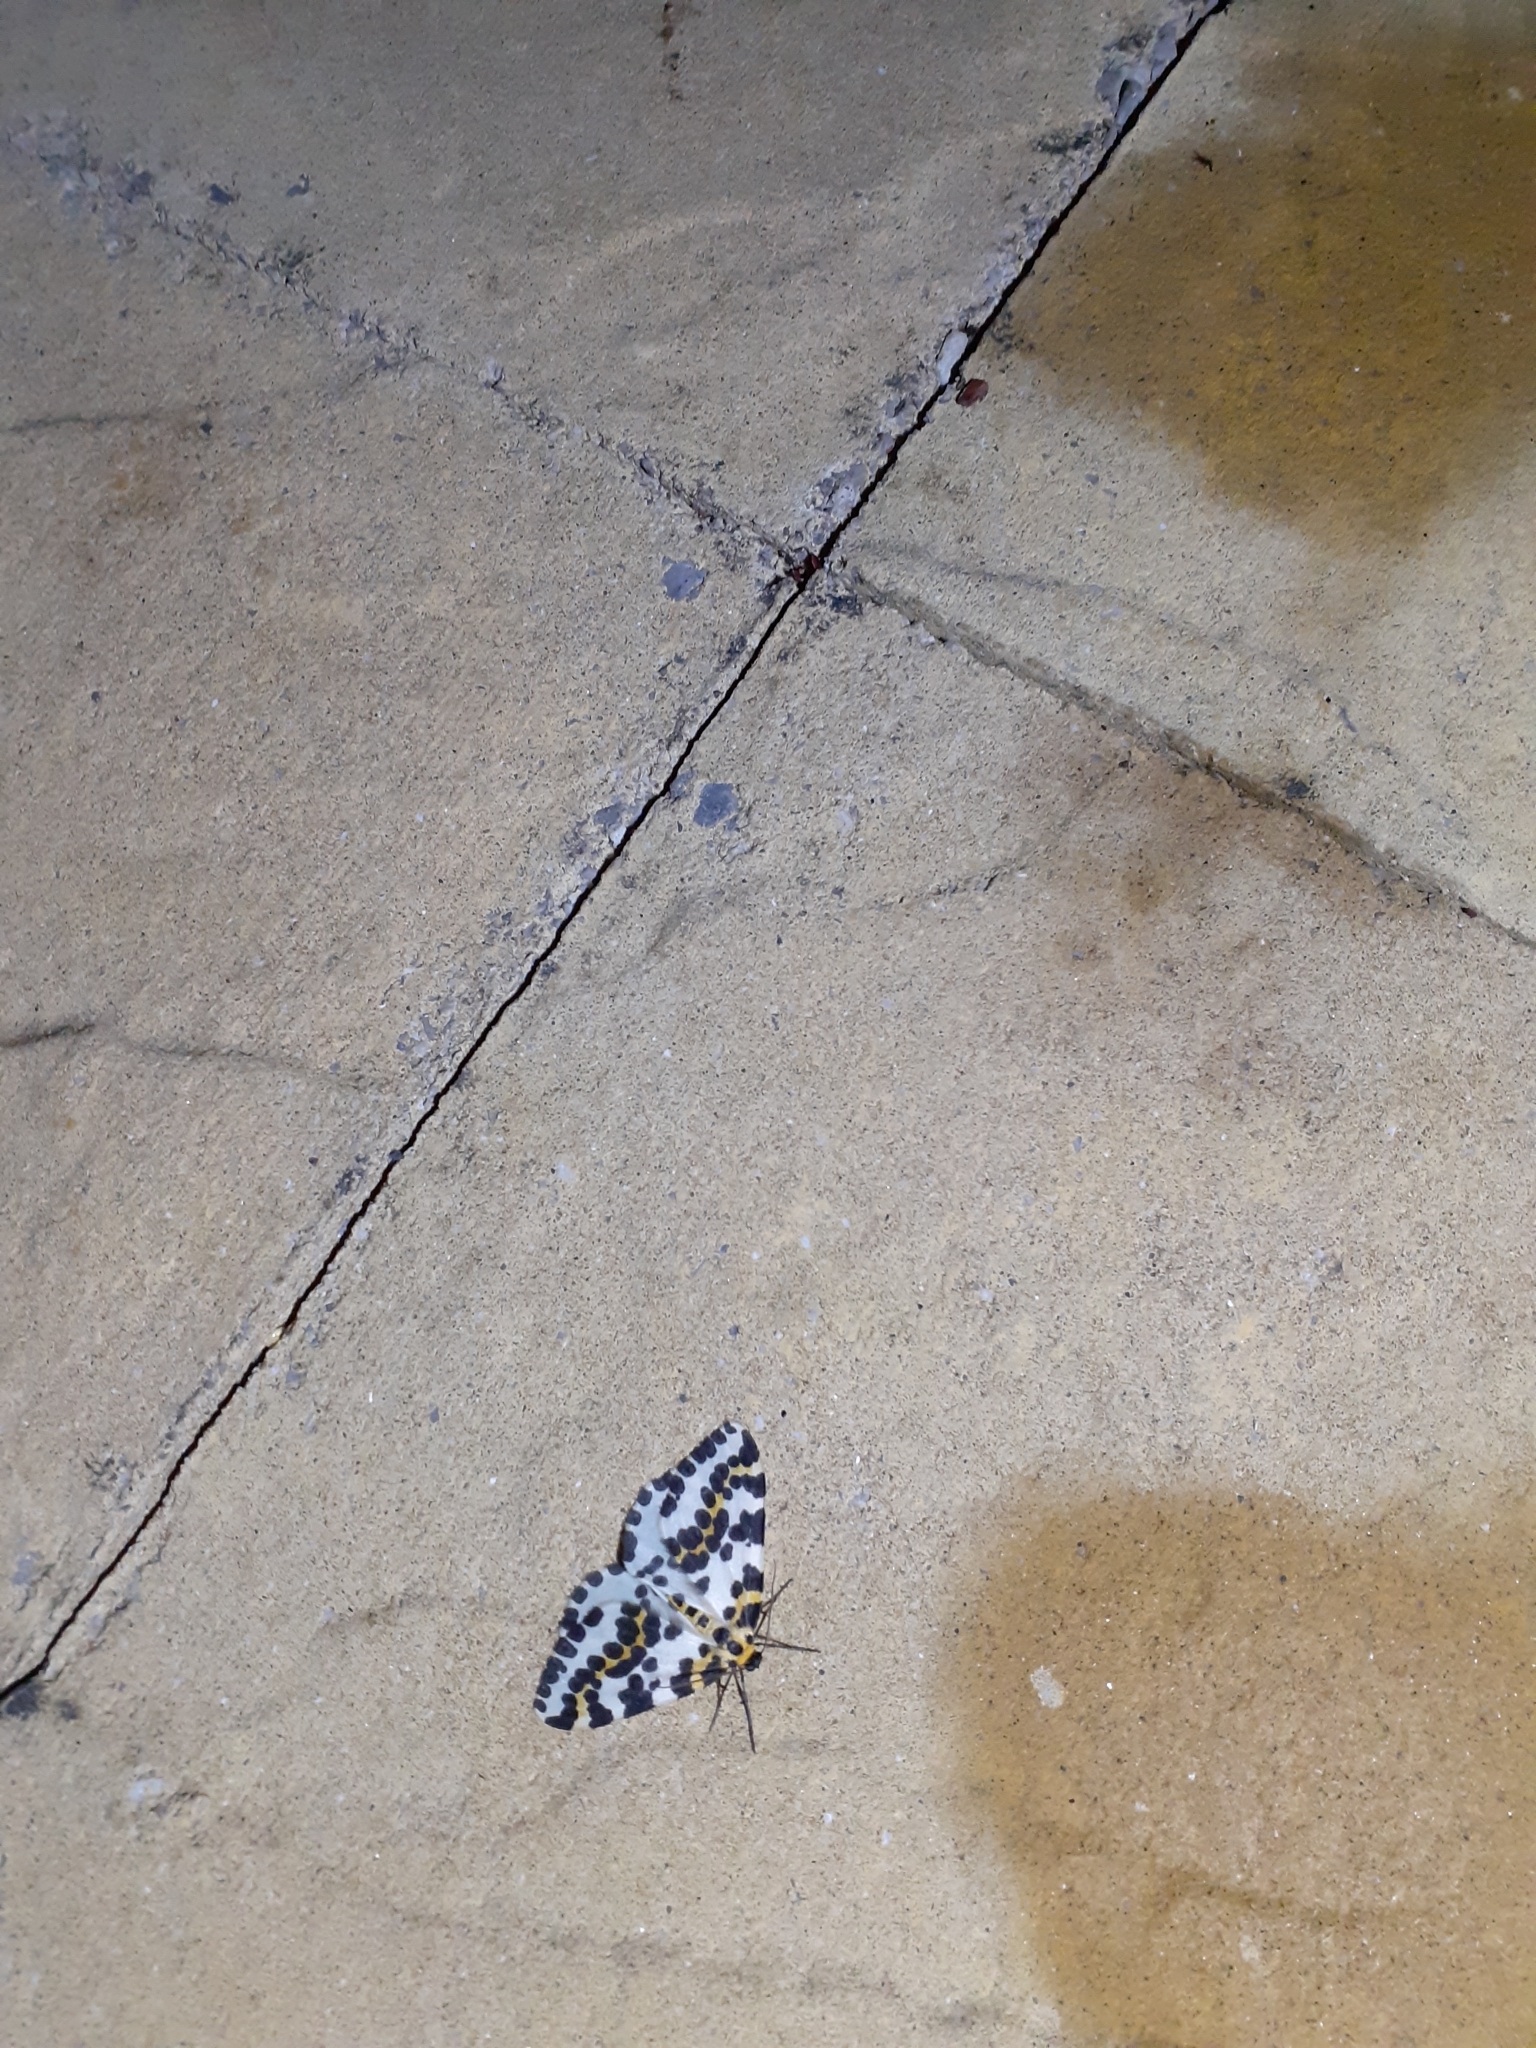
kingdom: Animalia
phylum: Arthropoda
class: Insecta
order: Lepidoptera
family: Geometridae
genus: Abraxas
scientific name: Abraxas grossulariata
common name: Magpie
